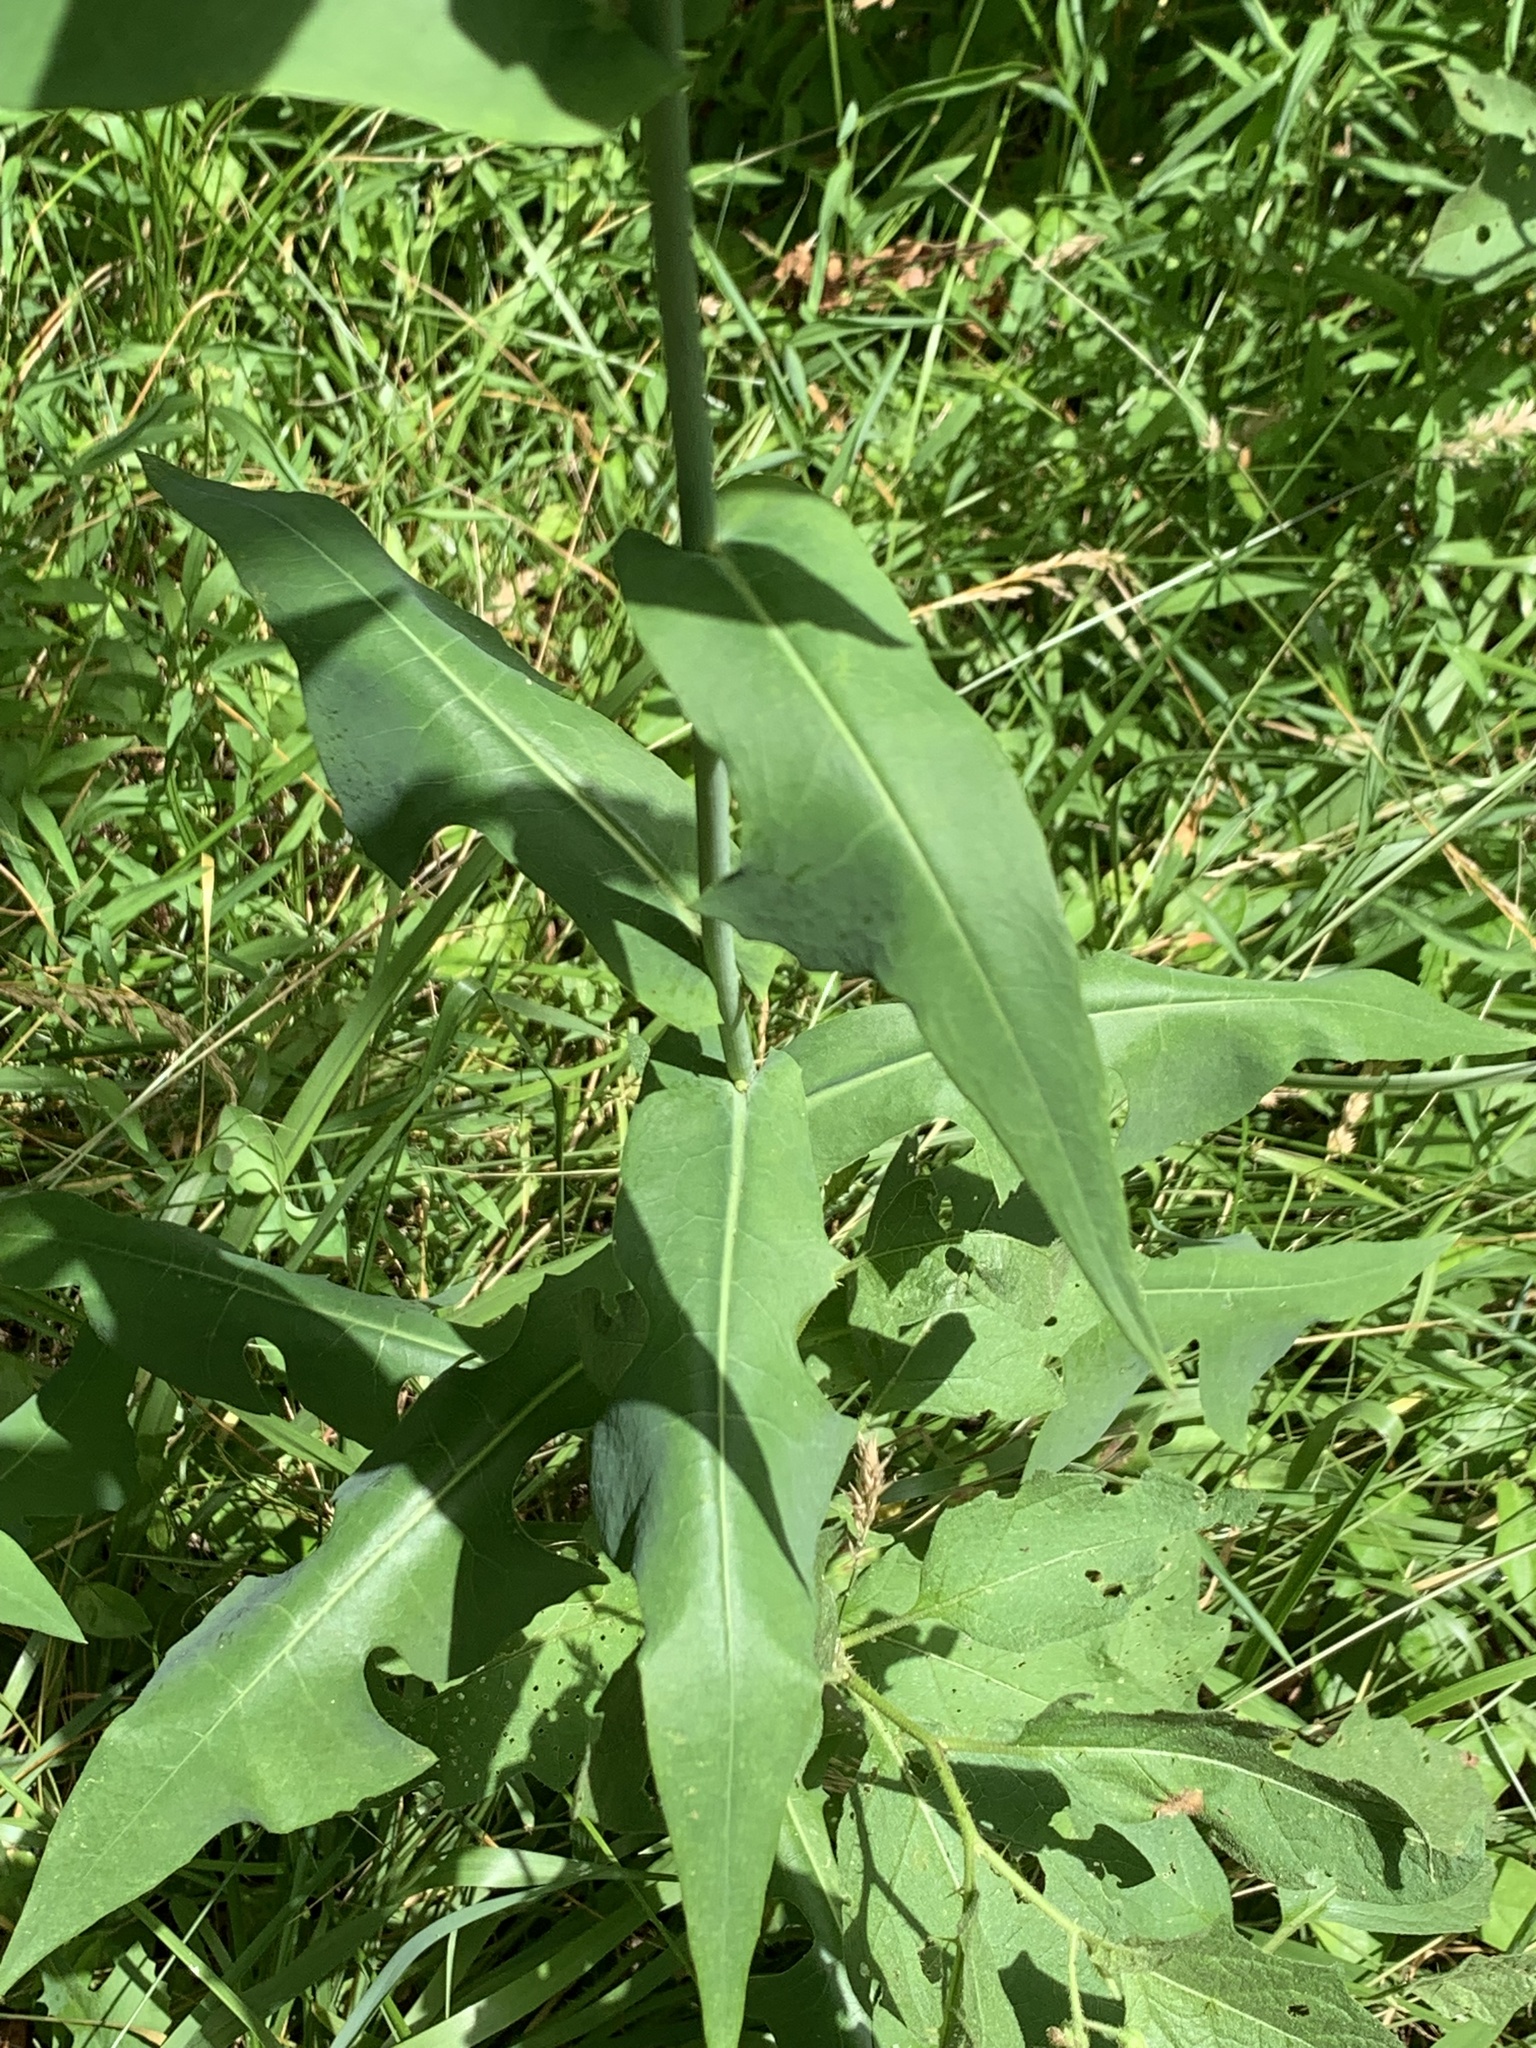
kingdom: Plantae
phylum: Tracheophyta
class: Magnoliopsida
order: Asterales
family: Asteraceae
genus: Lactuca
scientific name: Lactuca canadensis
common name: Canada lettuce
